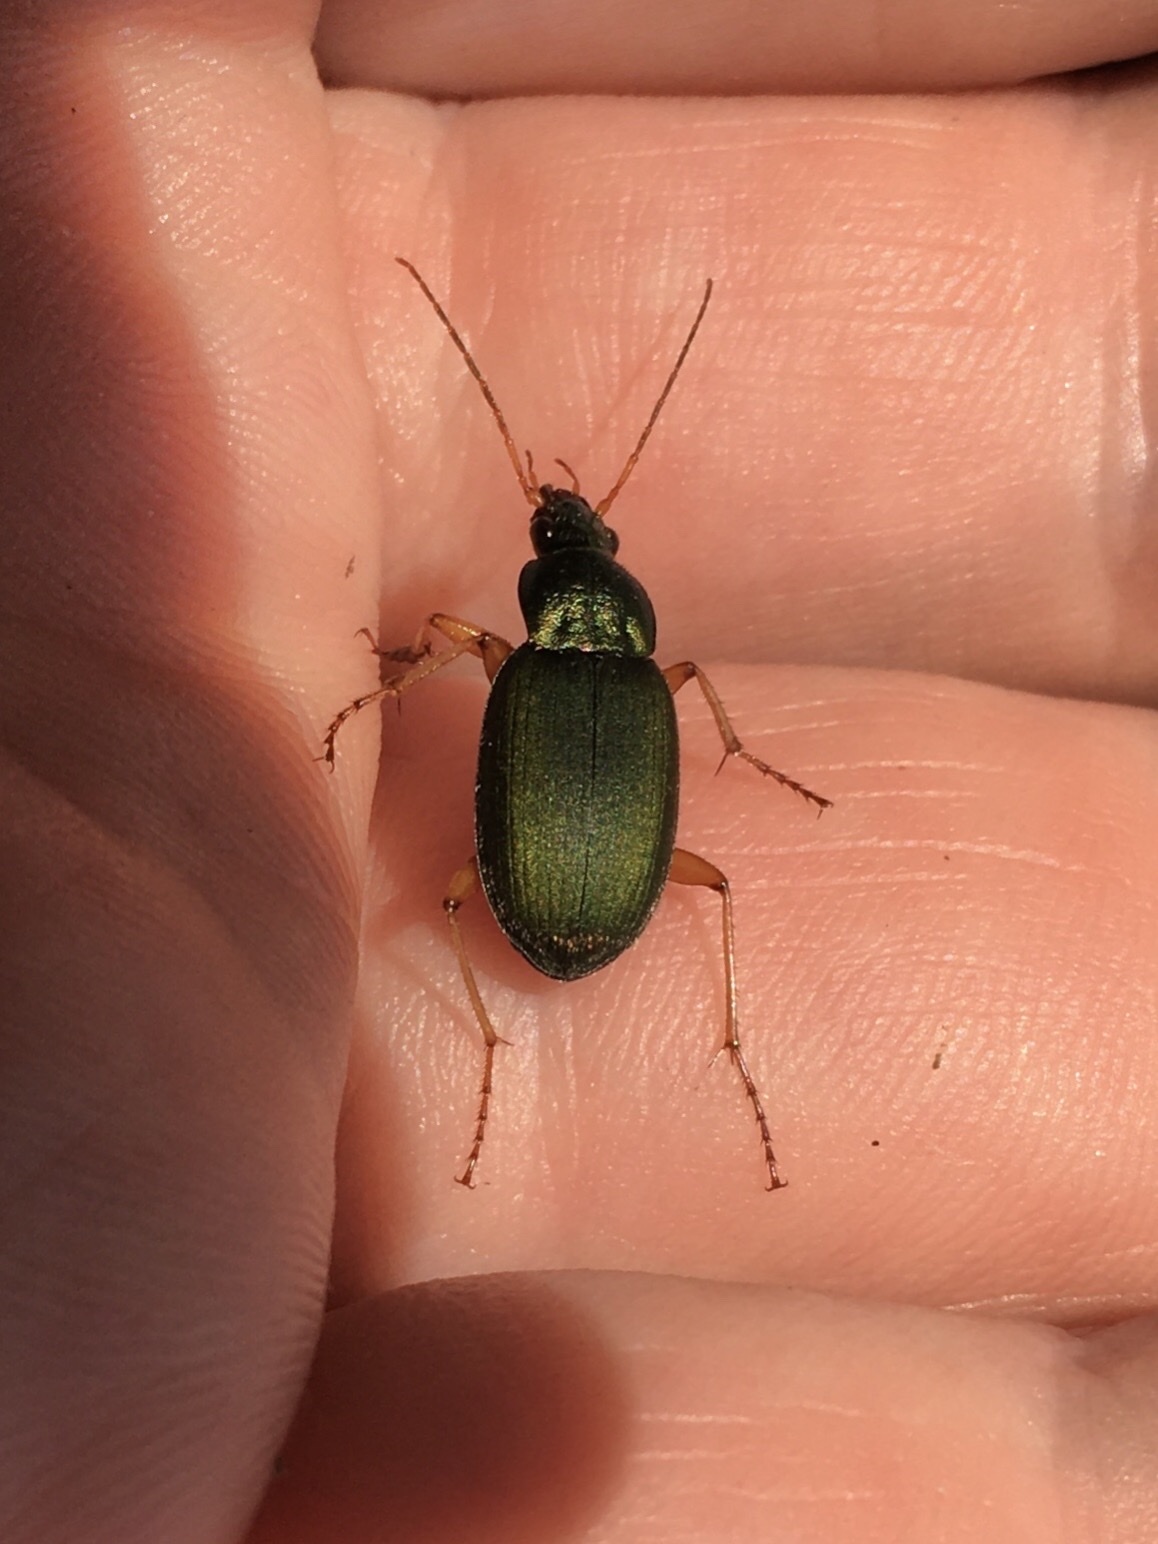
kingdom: Animalia
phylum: Arthropoda
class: Insecta
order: Coleoptera
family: Carabidae
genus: Chlaenius
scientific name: Chlaenius sericeus
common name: Green pubescent ground beetle
